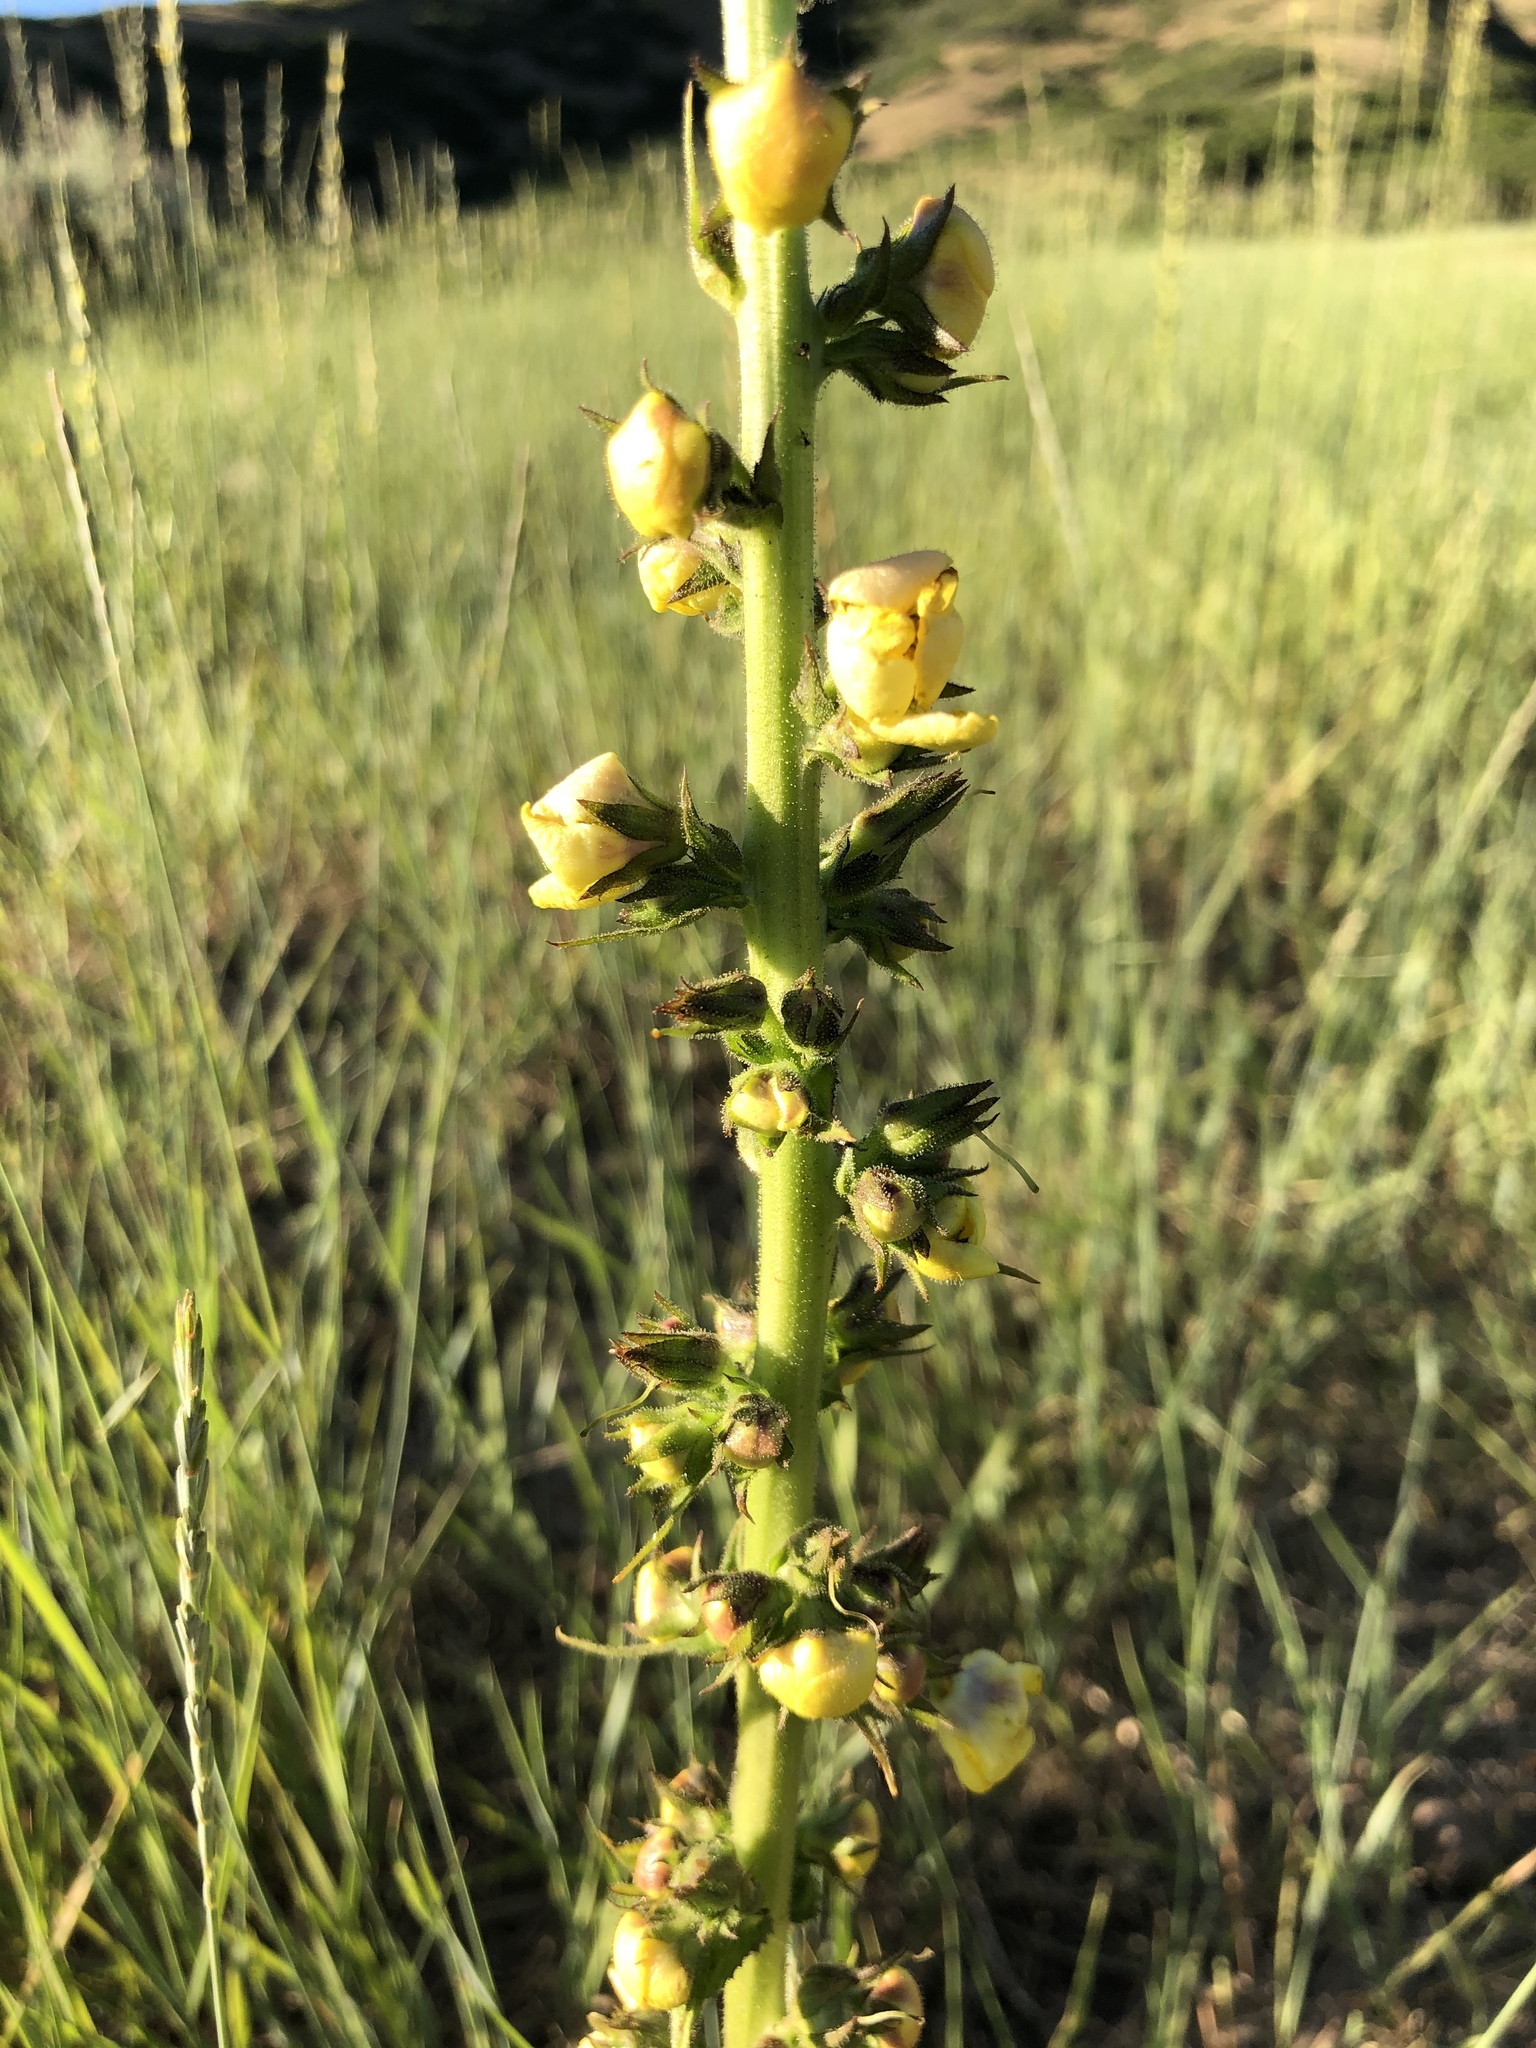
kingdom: Plantae
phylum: Tracheophyta
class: Magnoliopsida
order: Lamiales
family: Scrophulariaceae
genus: Verbascum
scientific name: Verbascum virgatum
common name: Twiggy mullein
